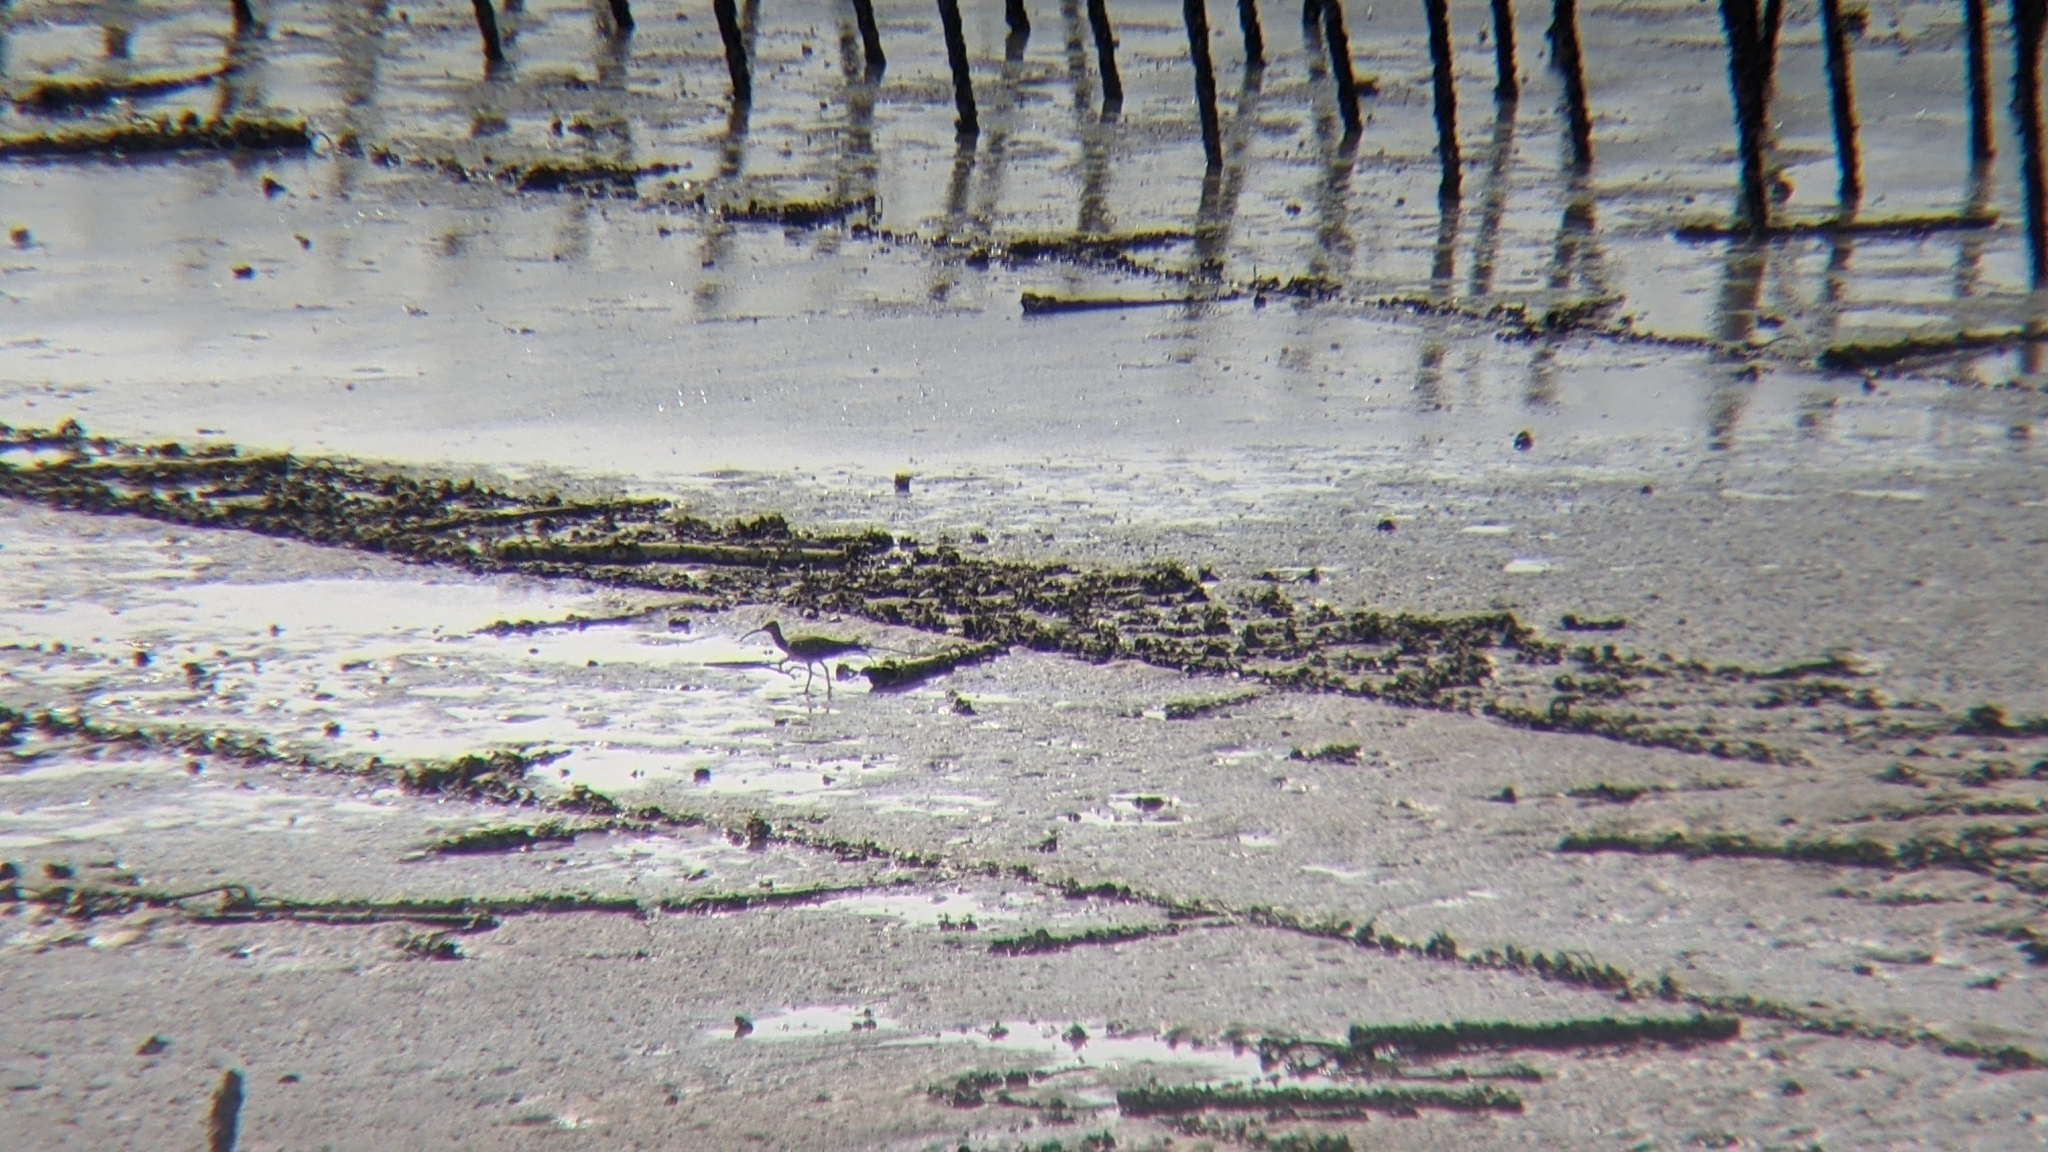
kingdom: Animalia
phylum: Chordata
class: Aves
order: Charadriiformes
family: Scolopacidae
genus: Numenius
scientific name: Numenius phaeopus
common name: Whimbrel
